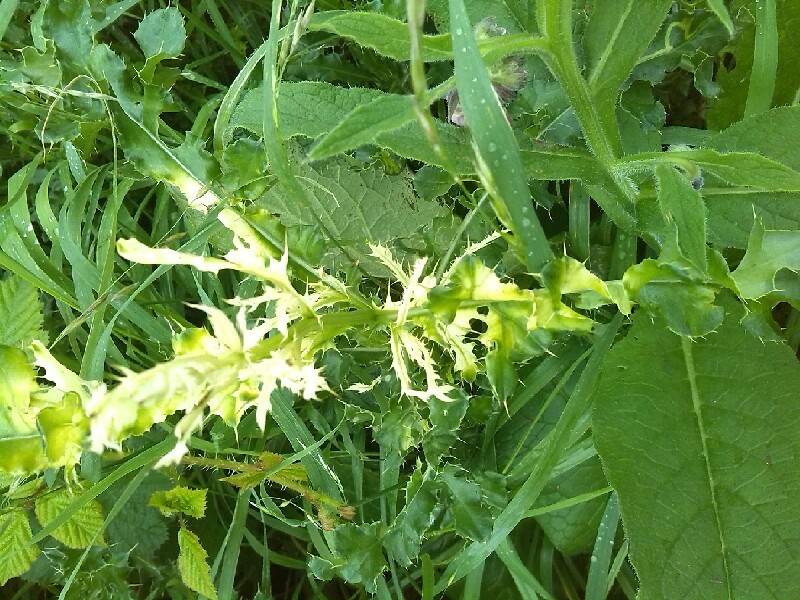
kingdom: Bacteria
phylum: Proteobacteria
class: Gammaproteobacteria
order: Pseudomonadales
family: Pseudomonadaceae
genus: Pseudomonas
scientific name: Pseudomonas syringae
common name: Bacterial speck
